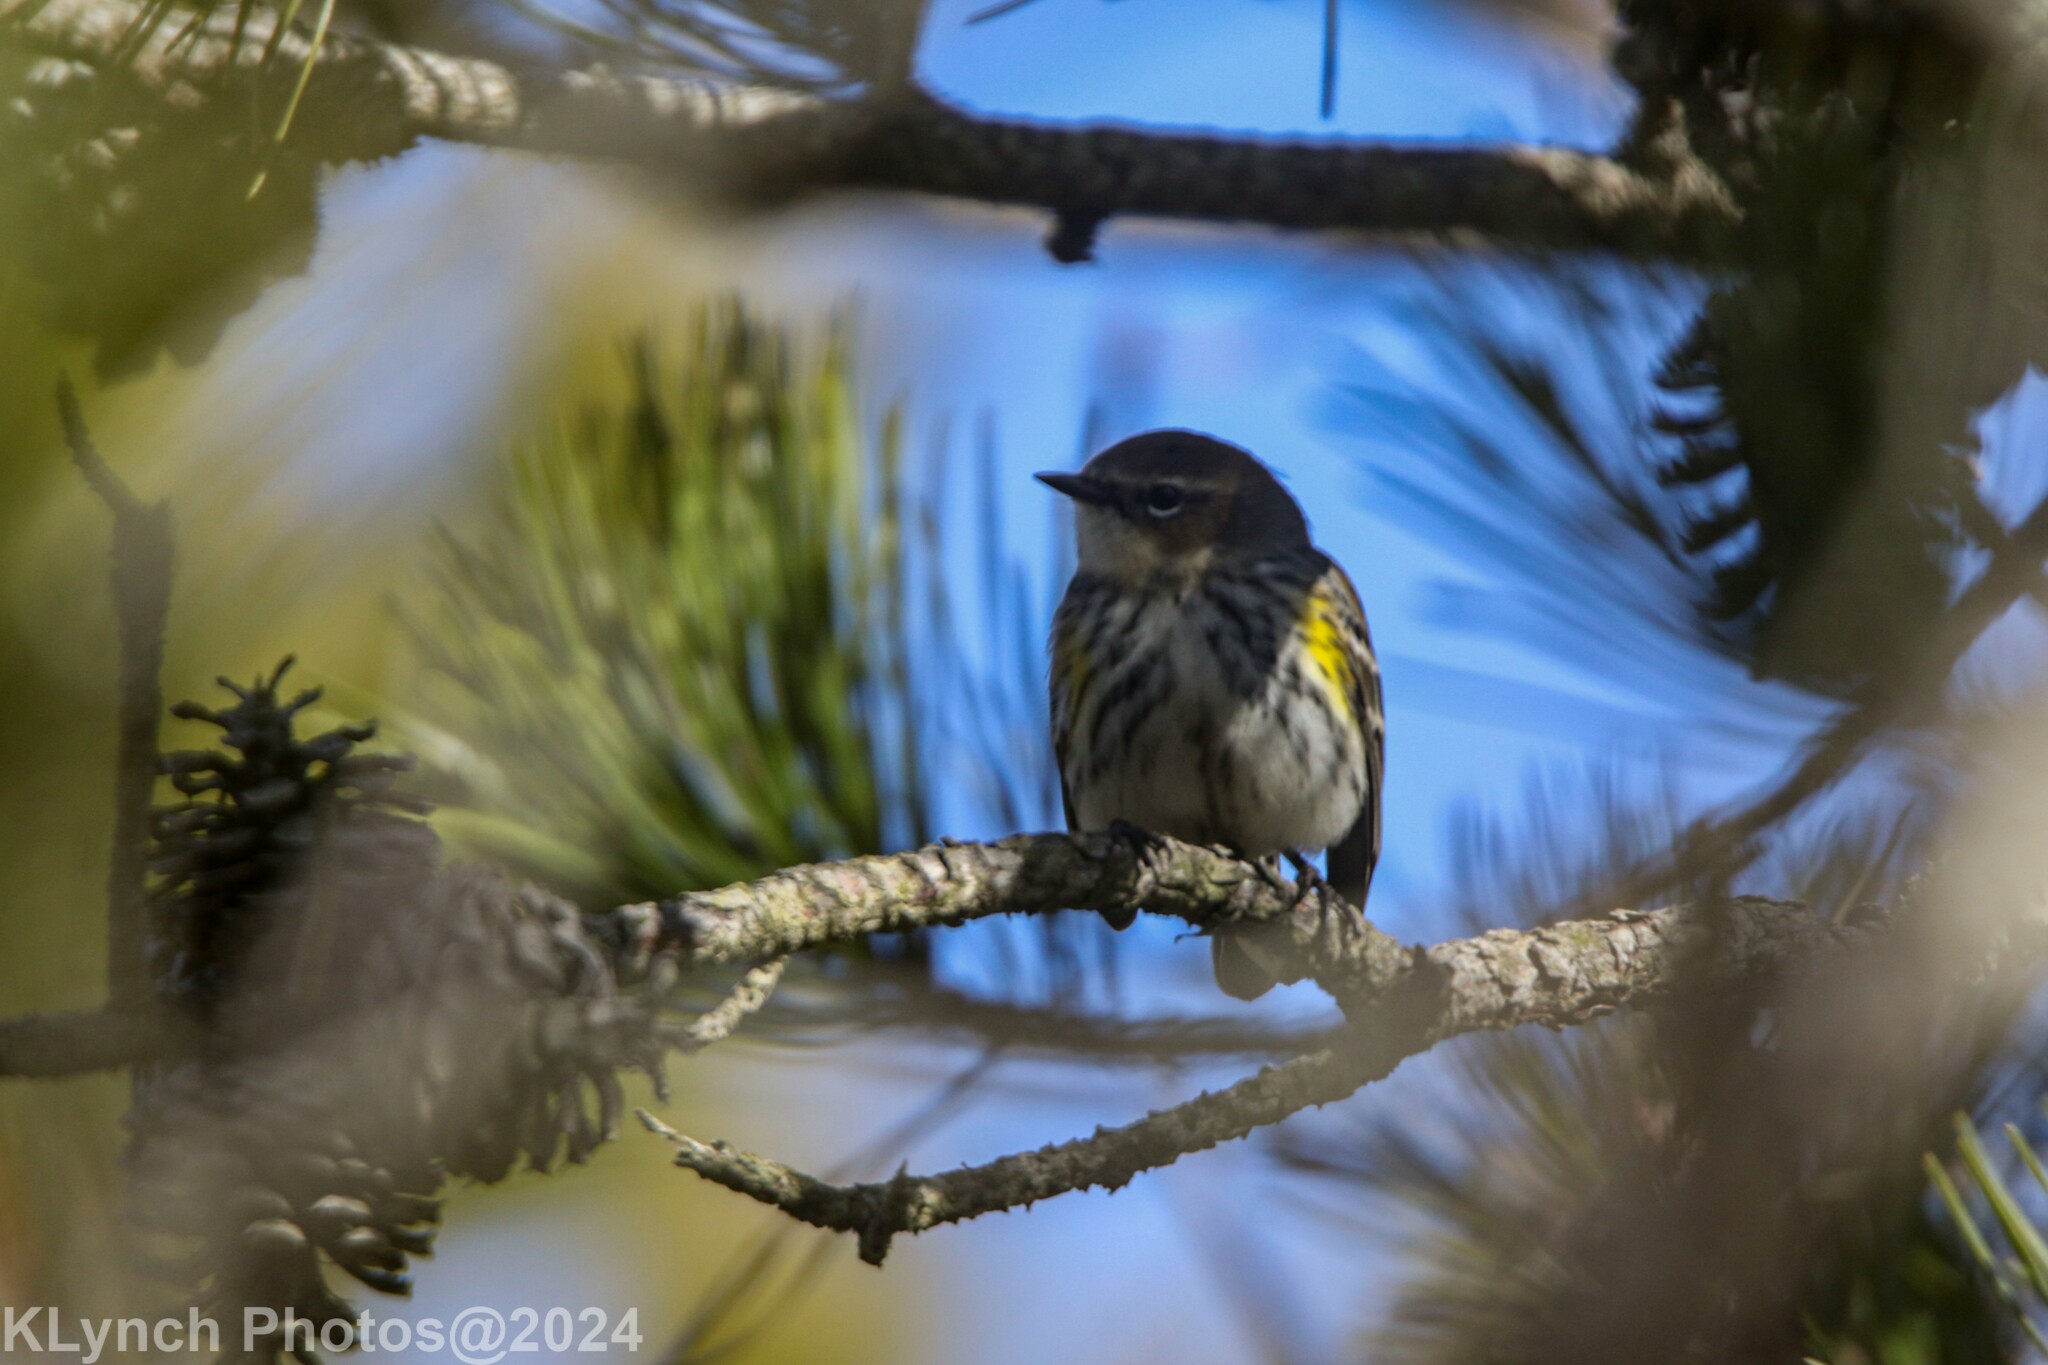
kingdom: Animalia
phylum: Chordata
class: Aves
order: Passeriformes
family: Parulidae
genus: Setophaga
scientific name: Setophaga coronata
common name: Myrtle warbler
